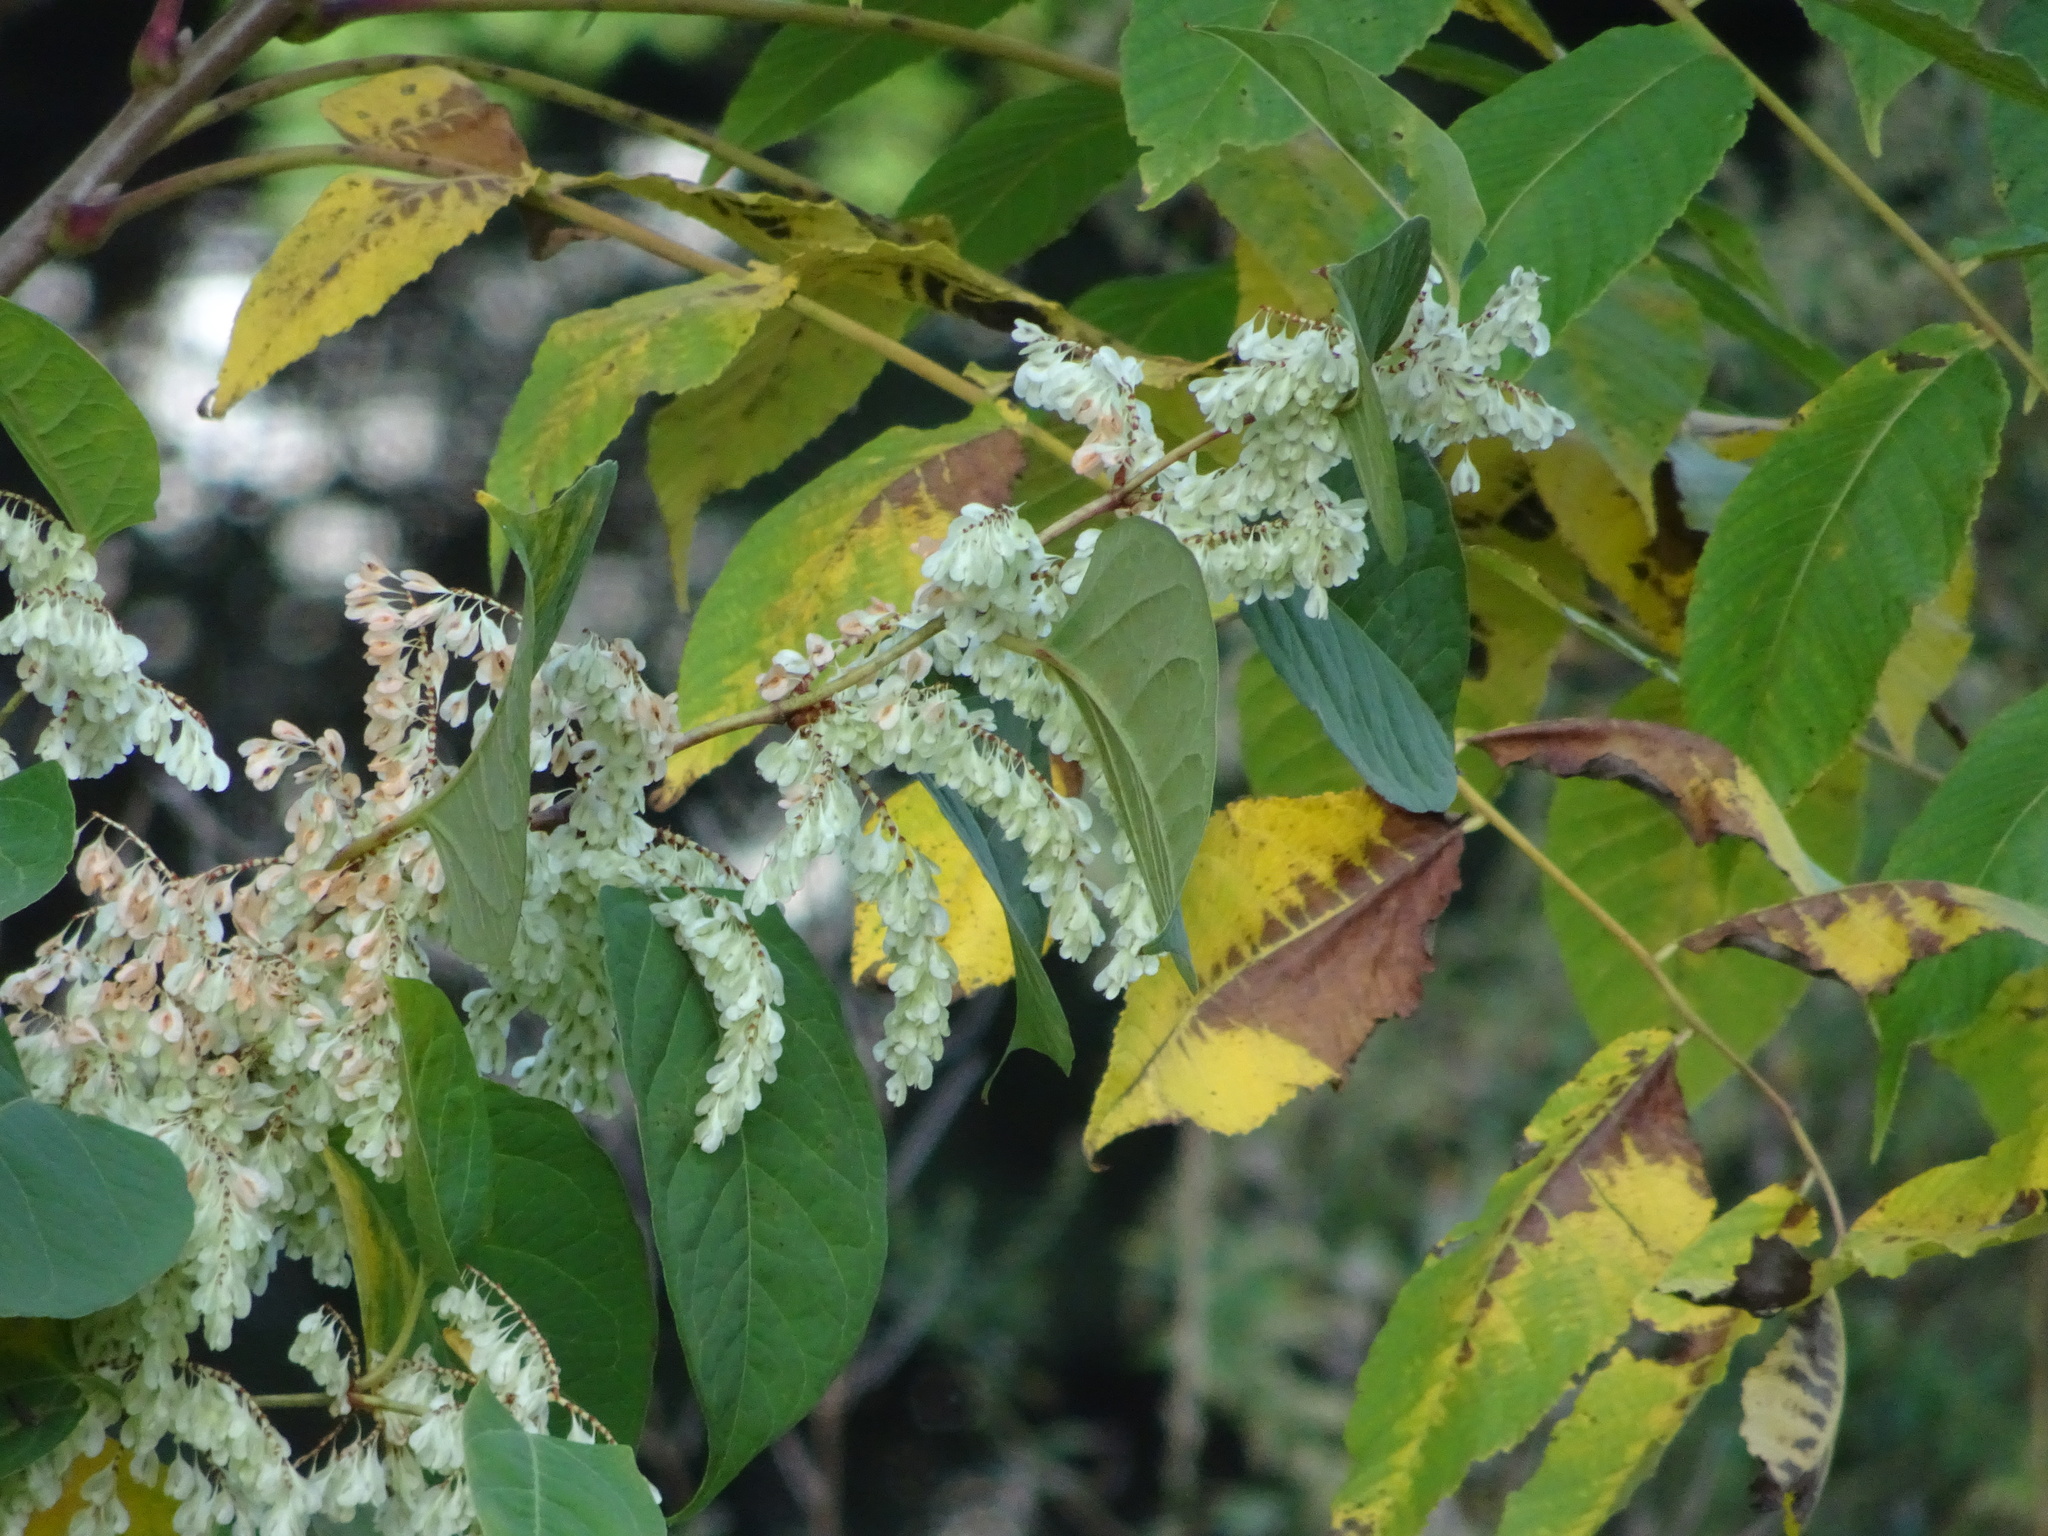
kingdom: Plantae
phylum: Tracheophyta
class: Magnoliopsida
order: Caryophyllales
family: Polygonaceae
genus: Reynoutria
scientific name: Reynoutria japonica
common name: Japanese knotweed
